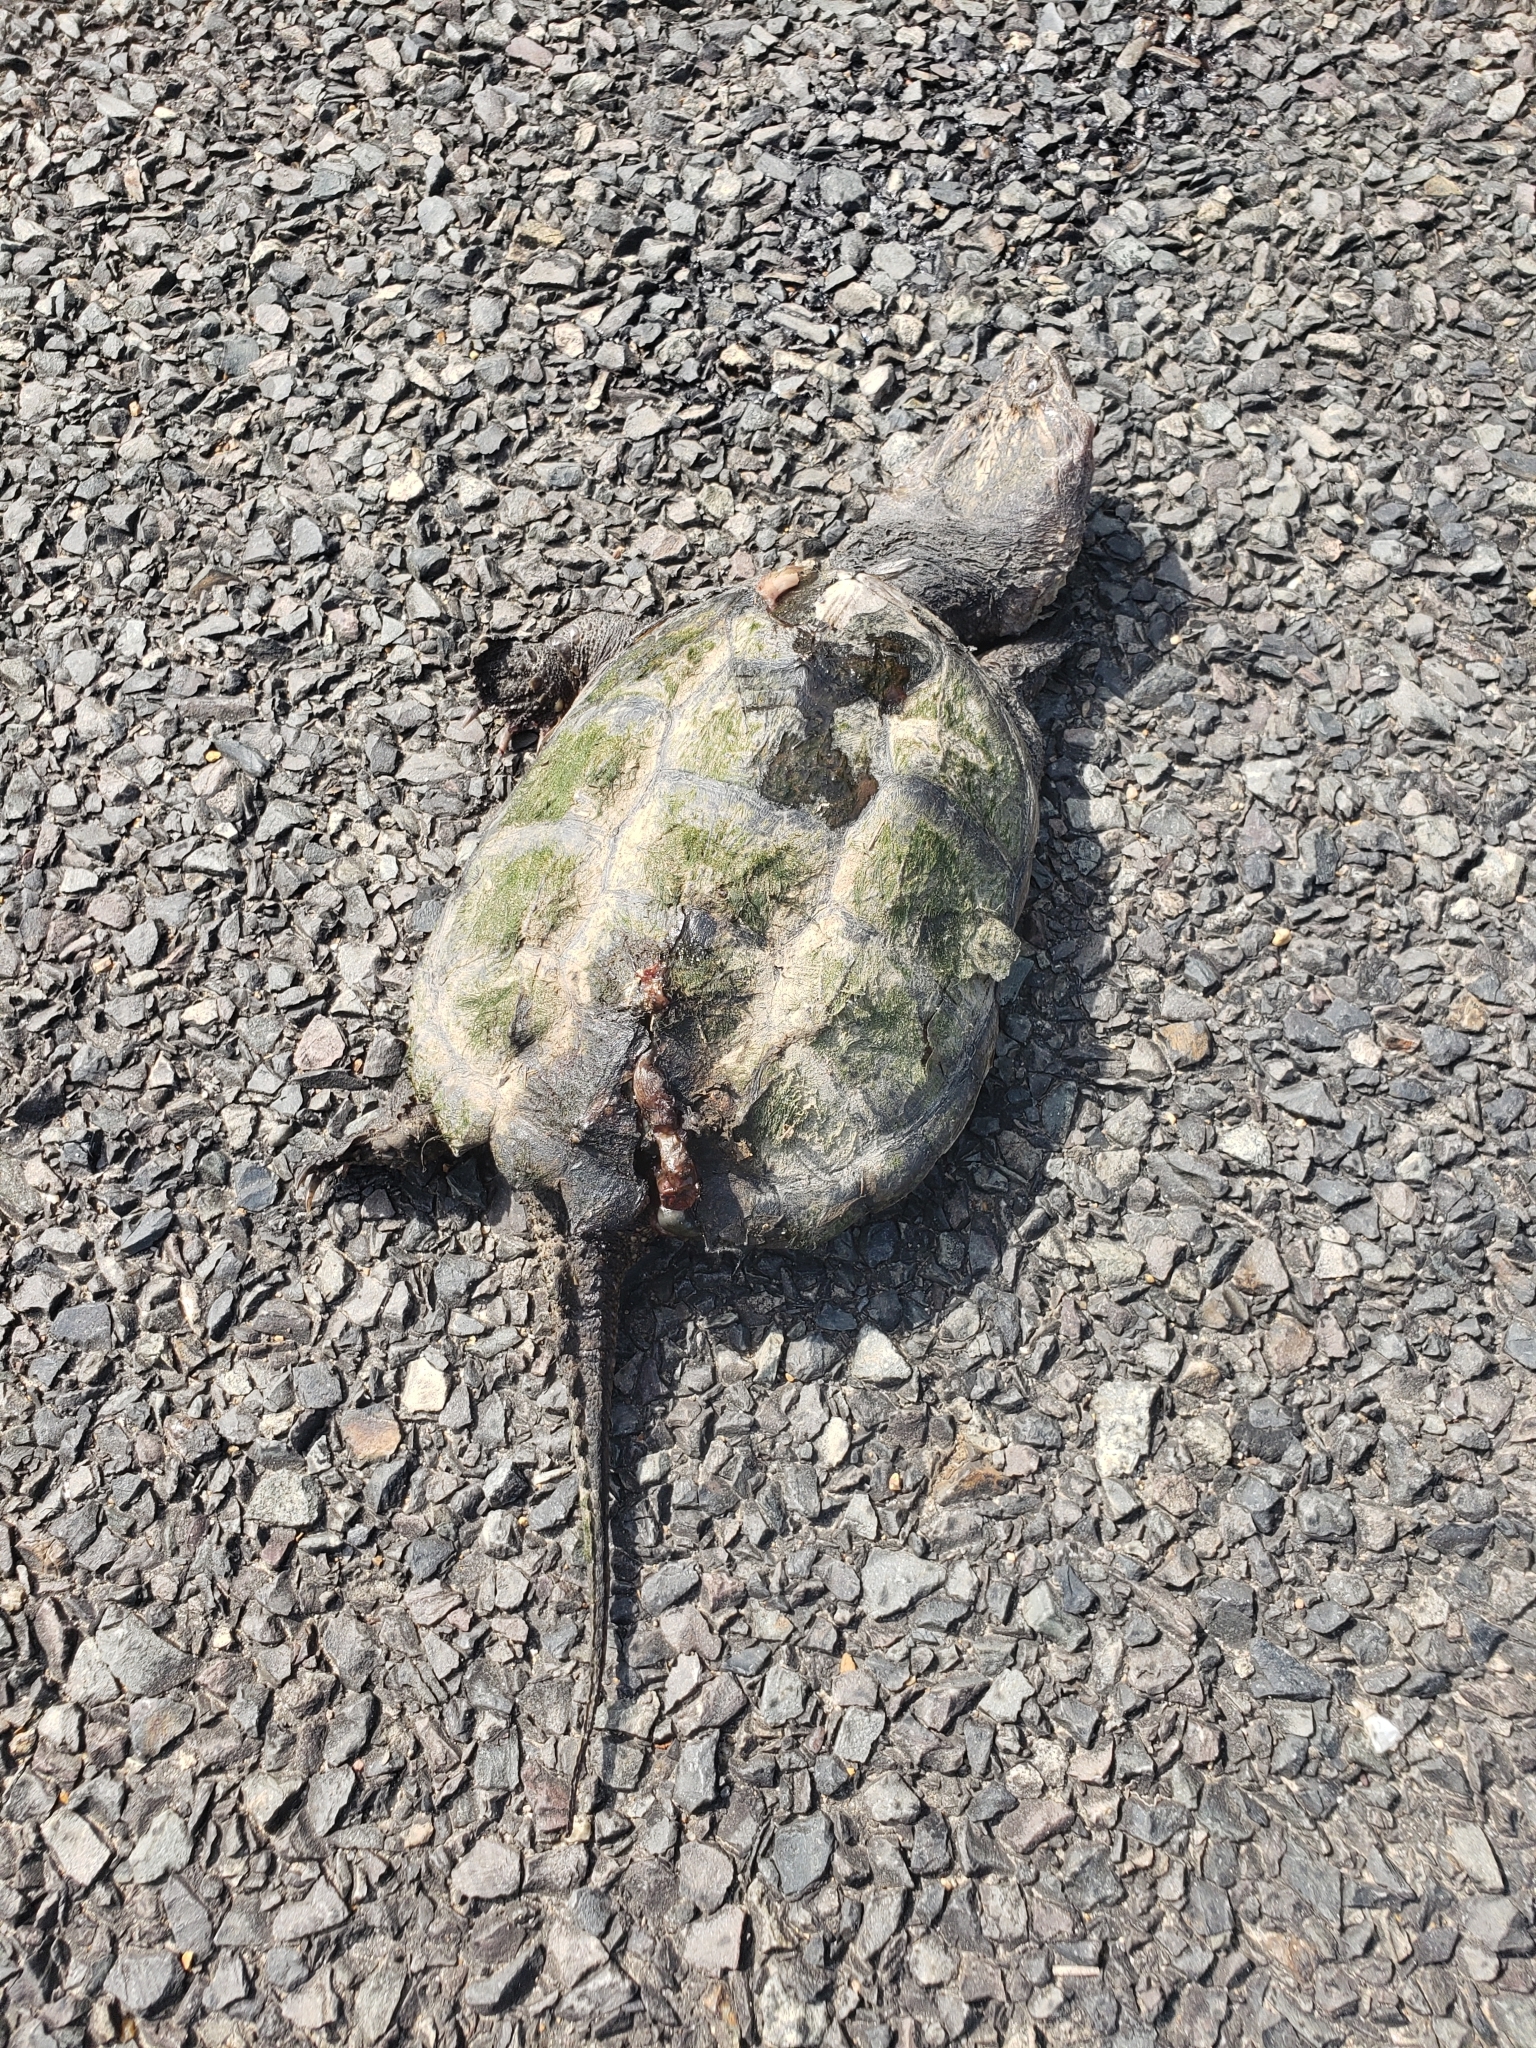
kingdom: Animalia
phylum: Chordata
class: Testudines
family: Chelydridae
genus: Chelydra
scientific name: Chelydra serpentina
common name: Common snapping turtle
